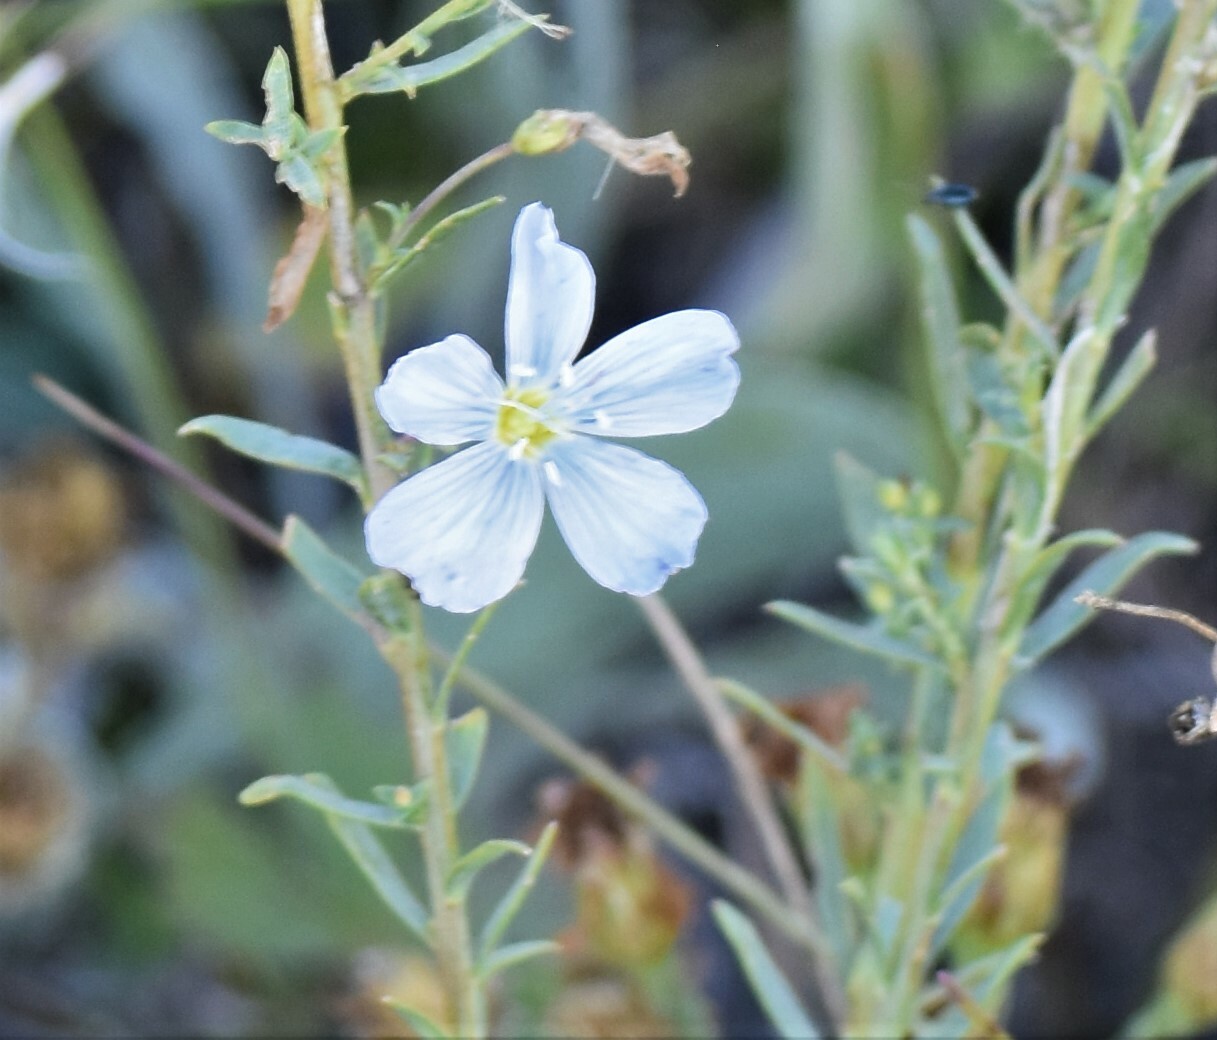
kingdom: Plantae
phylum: Tracheophyta
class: Magnoliopsida
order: Malpighiales
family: Linaceae
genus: Linum
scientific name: Linum lewisii
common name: Prairie flax
